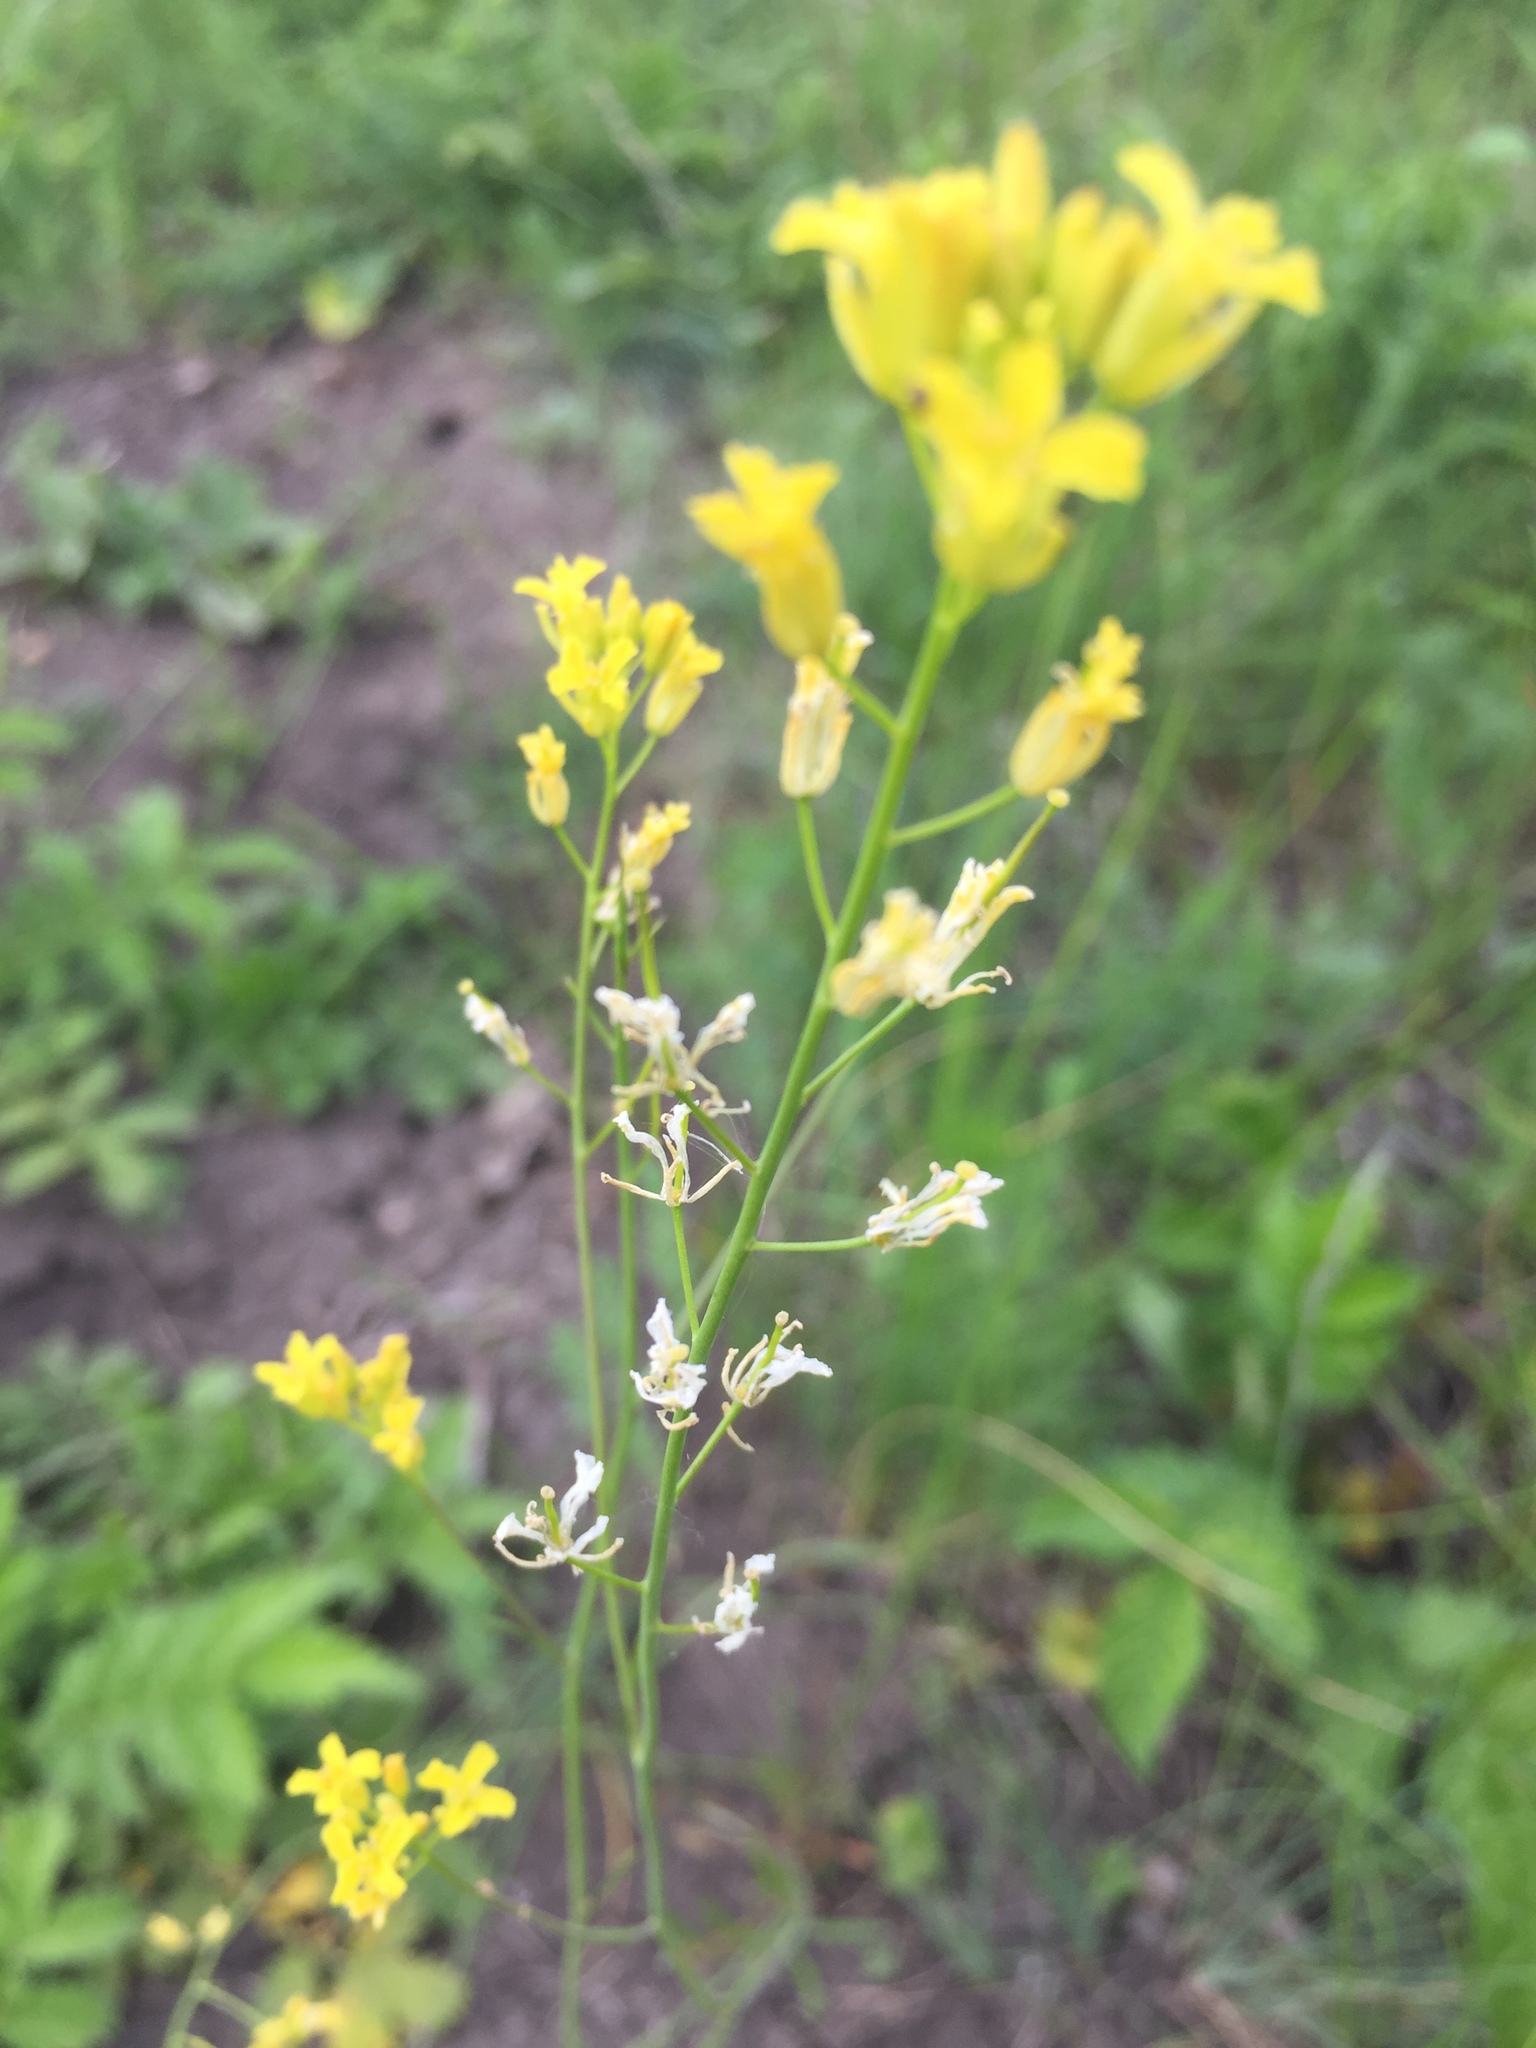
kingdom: Plantae
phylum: Tracheophyta
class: Magnoliopsida
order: Brassicales
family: Brassicaceae
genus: Sisymbrium
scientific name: Sisymbrium polymorphum
